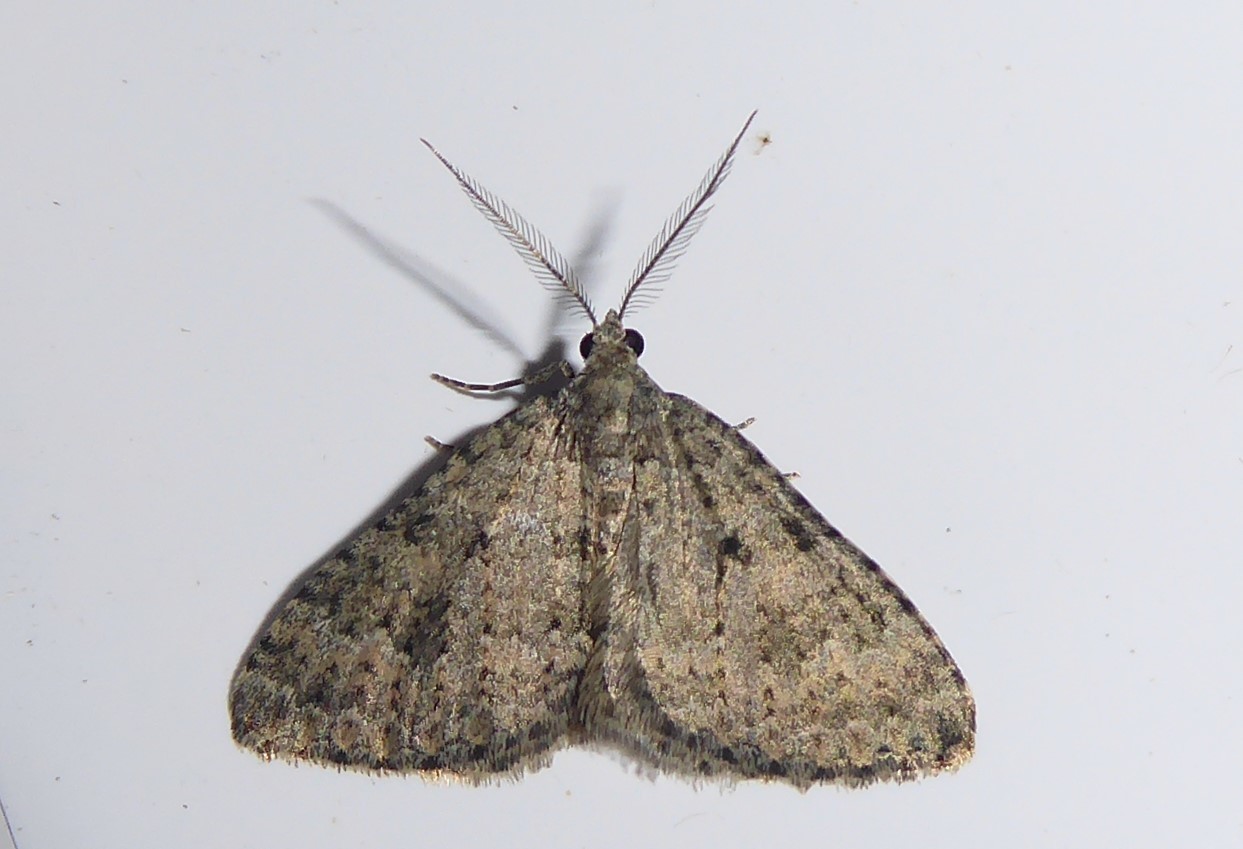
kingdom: Animalia
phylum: Arthropoda
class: Insecta
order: Lepidoptera
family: Geometridae
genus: Helastia
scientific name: Helastia corcularia
